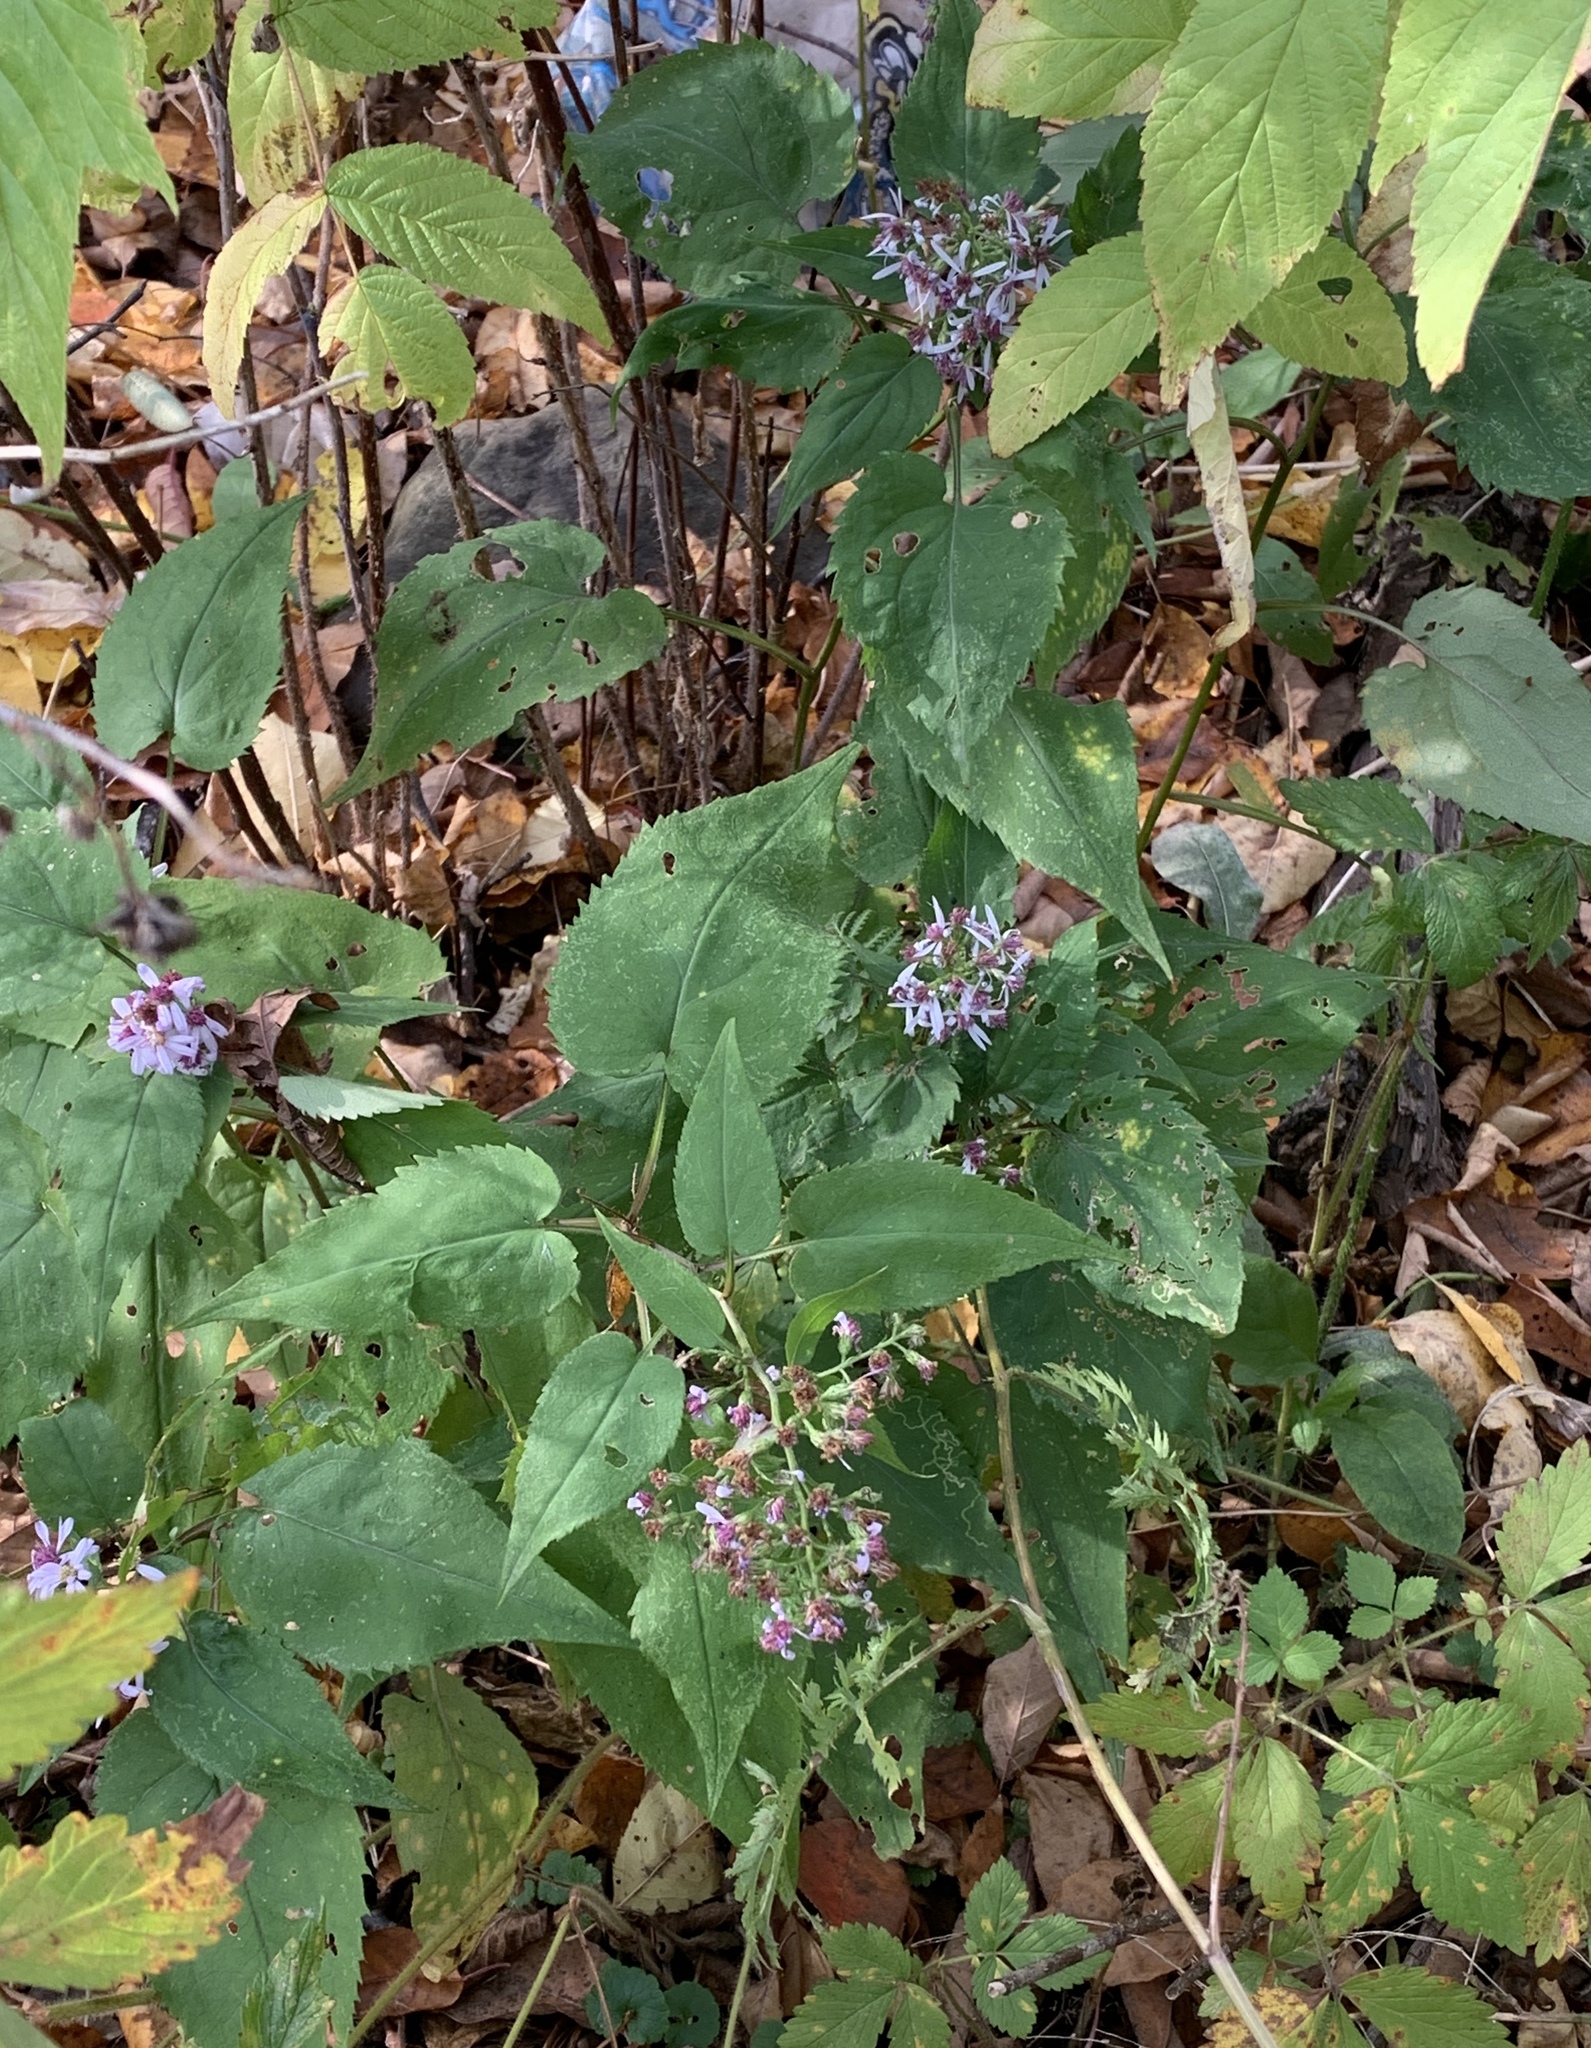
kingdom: Plantae
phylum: Tracheophyta
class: Magnoliopsida
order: Asterales
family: Asteraceae
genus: Symphyotrichum
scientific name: Symphyotrichum cordifolium
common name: Beeweed
